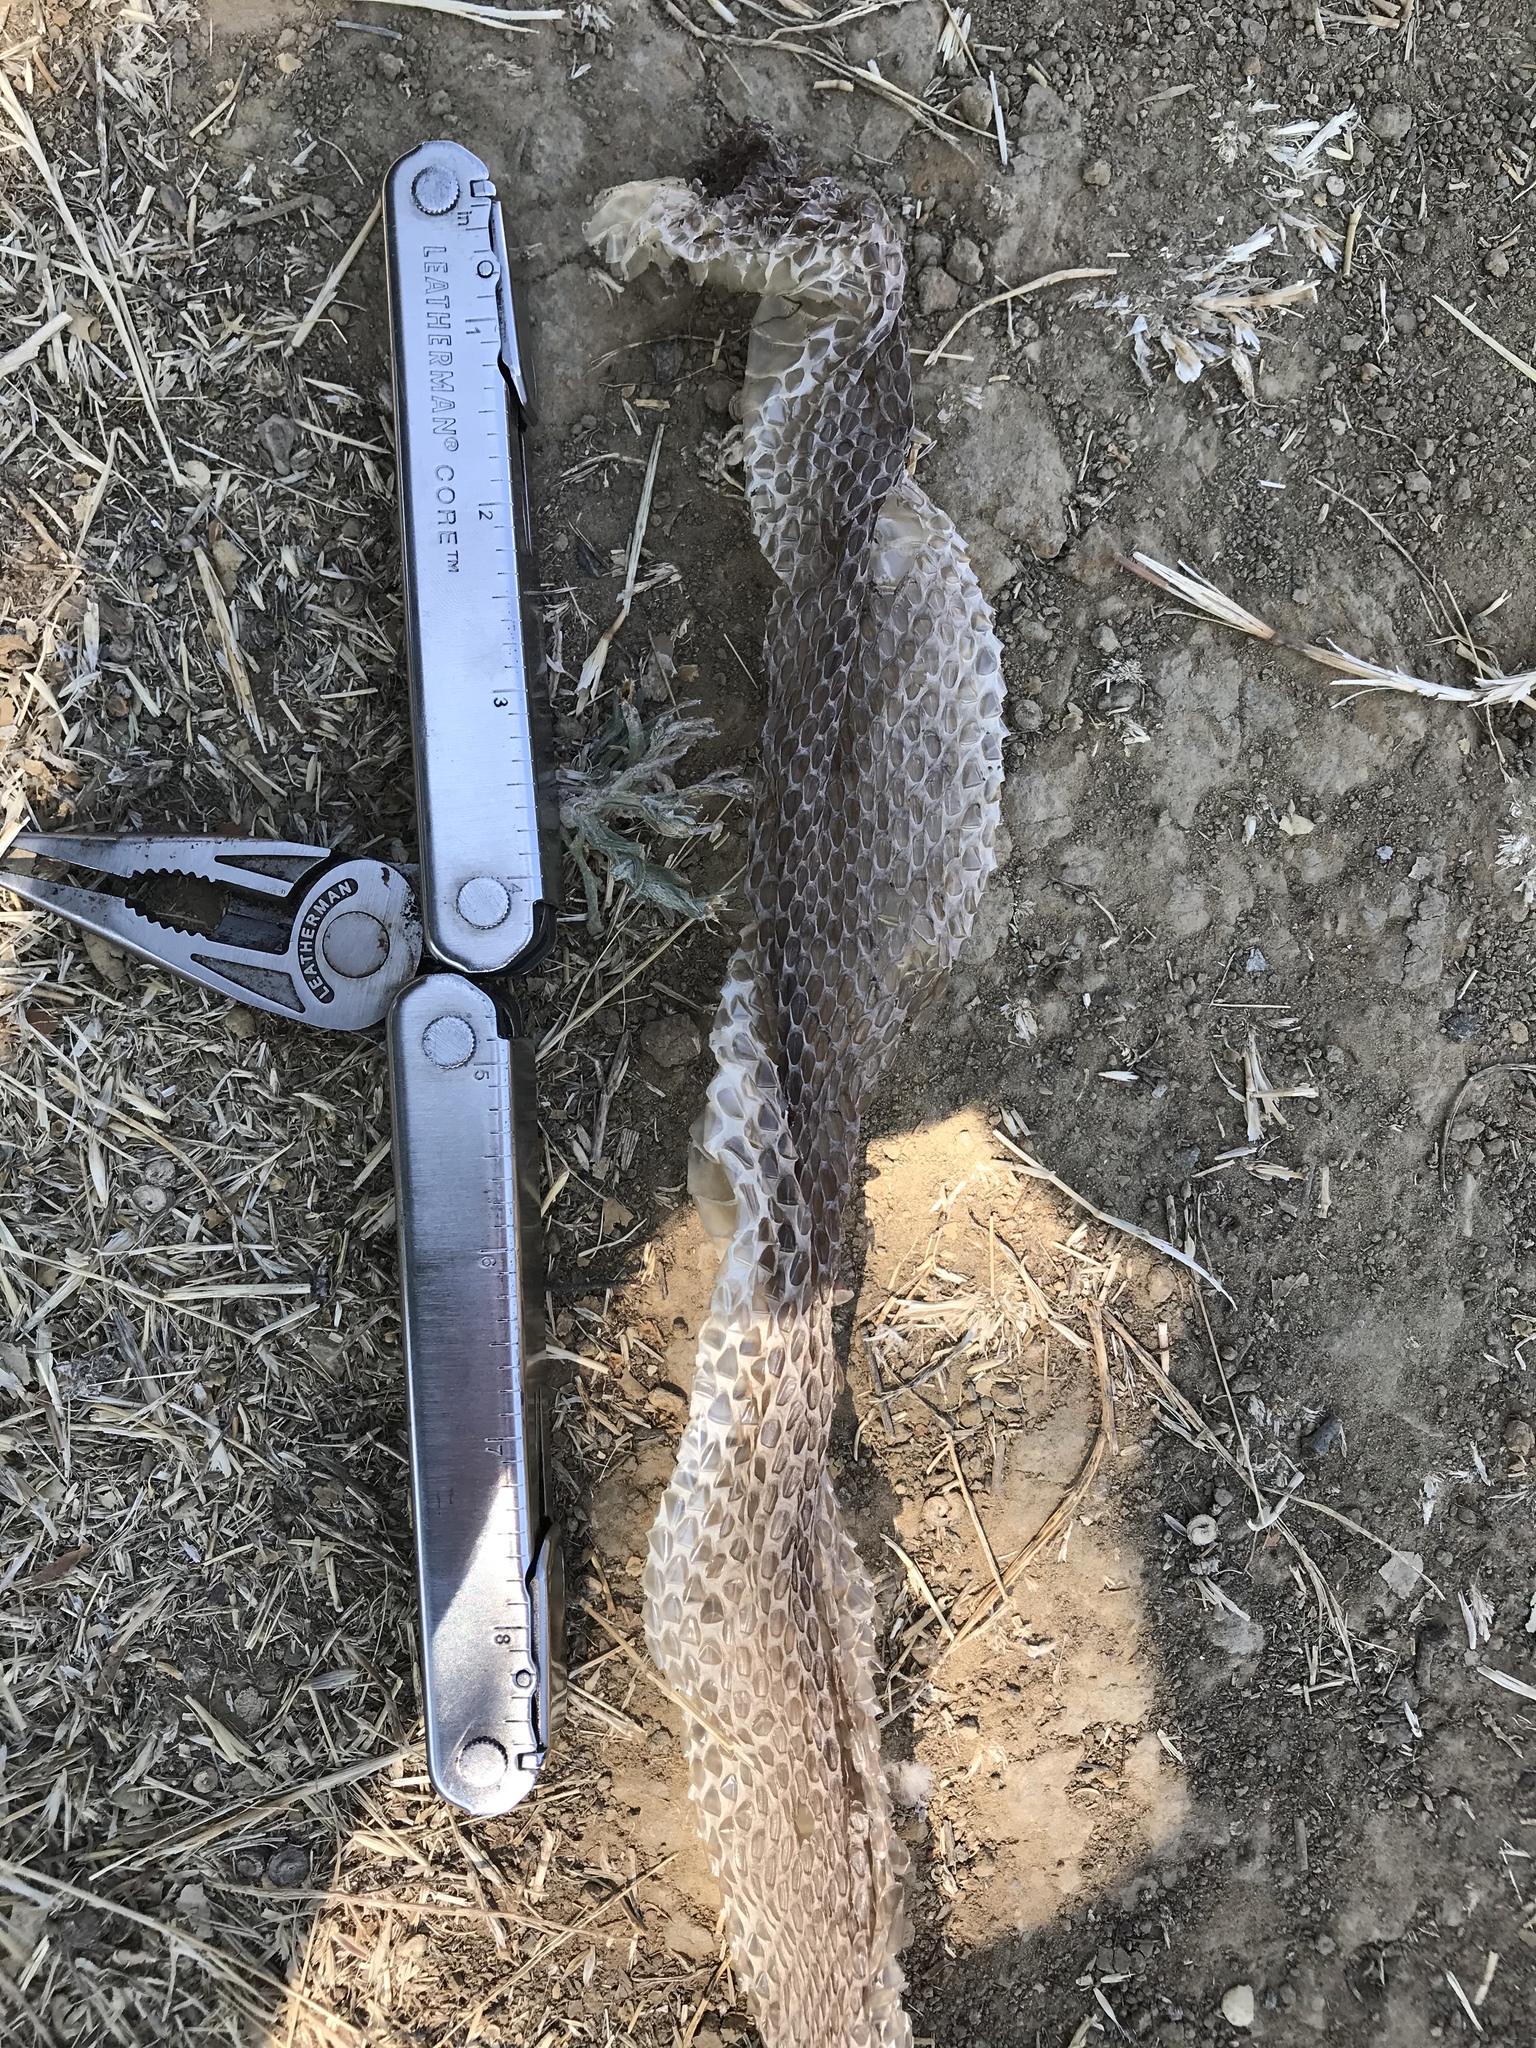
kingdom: Animalia
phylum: Chordata
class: Squamata
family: Viperidae
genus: Crotalus
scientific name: Crotalus oreganus
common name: Abyssus
